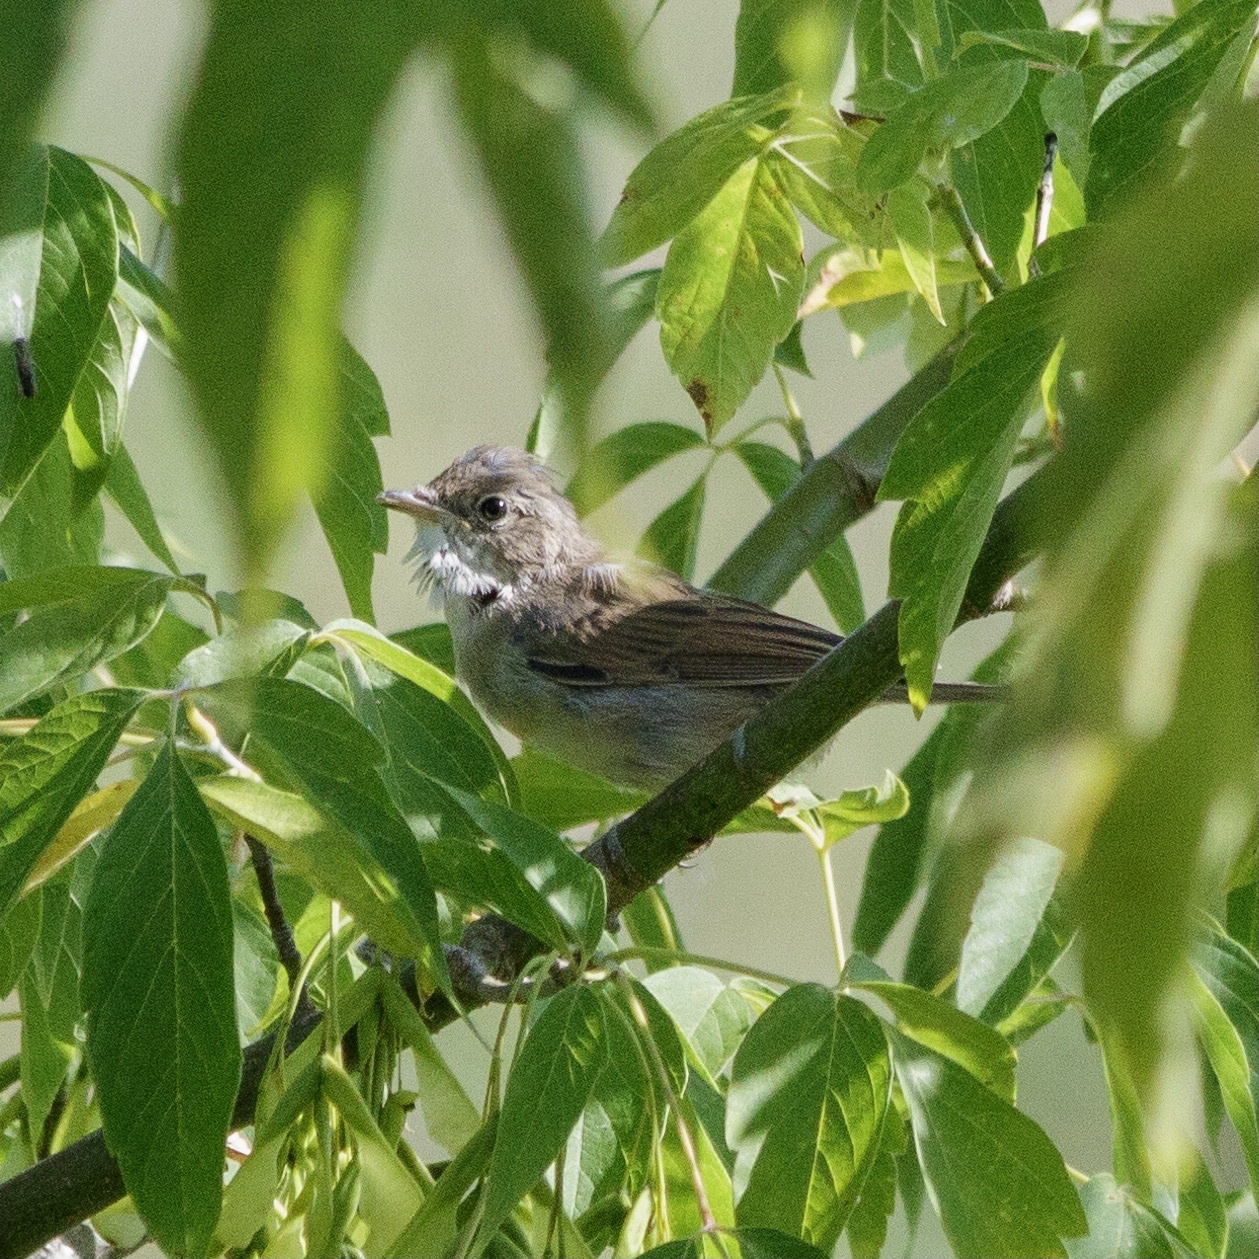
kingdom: Animalia
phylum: Chordata
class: Aves
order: Passeriformes
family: Sylviidae
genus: Sylvia
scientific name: Sylvia communis
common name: Common whitethroat
